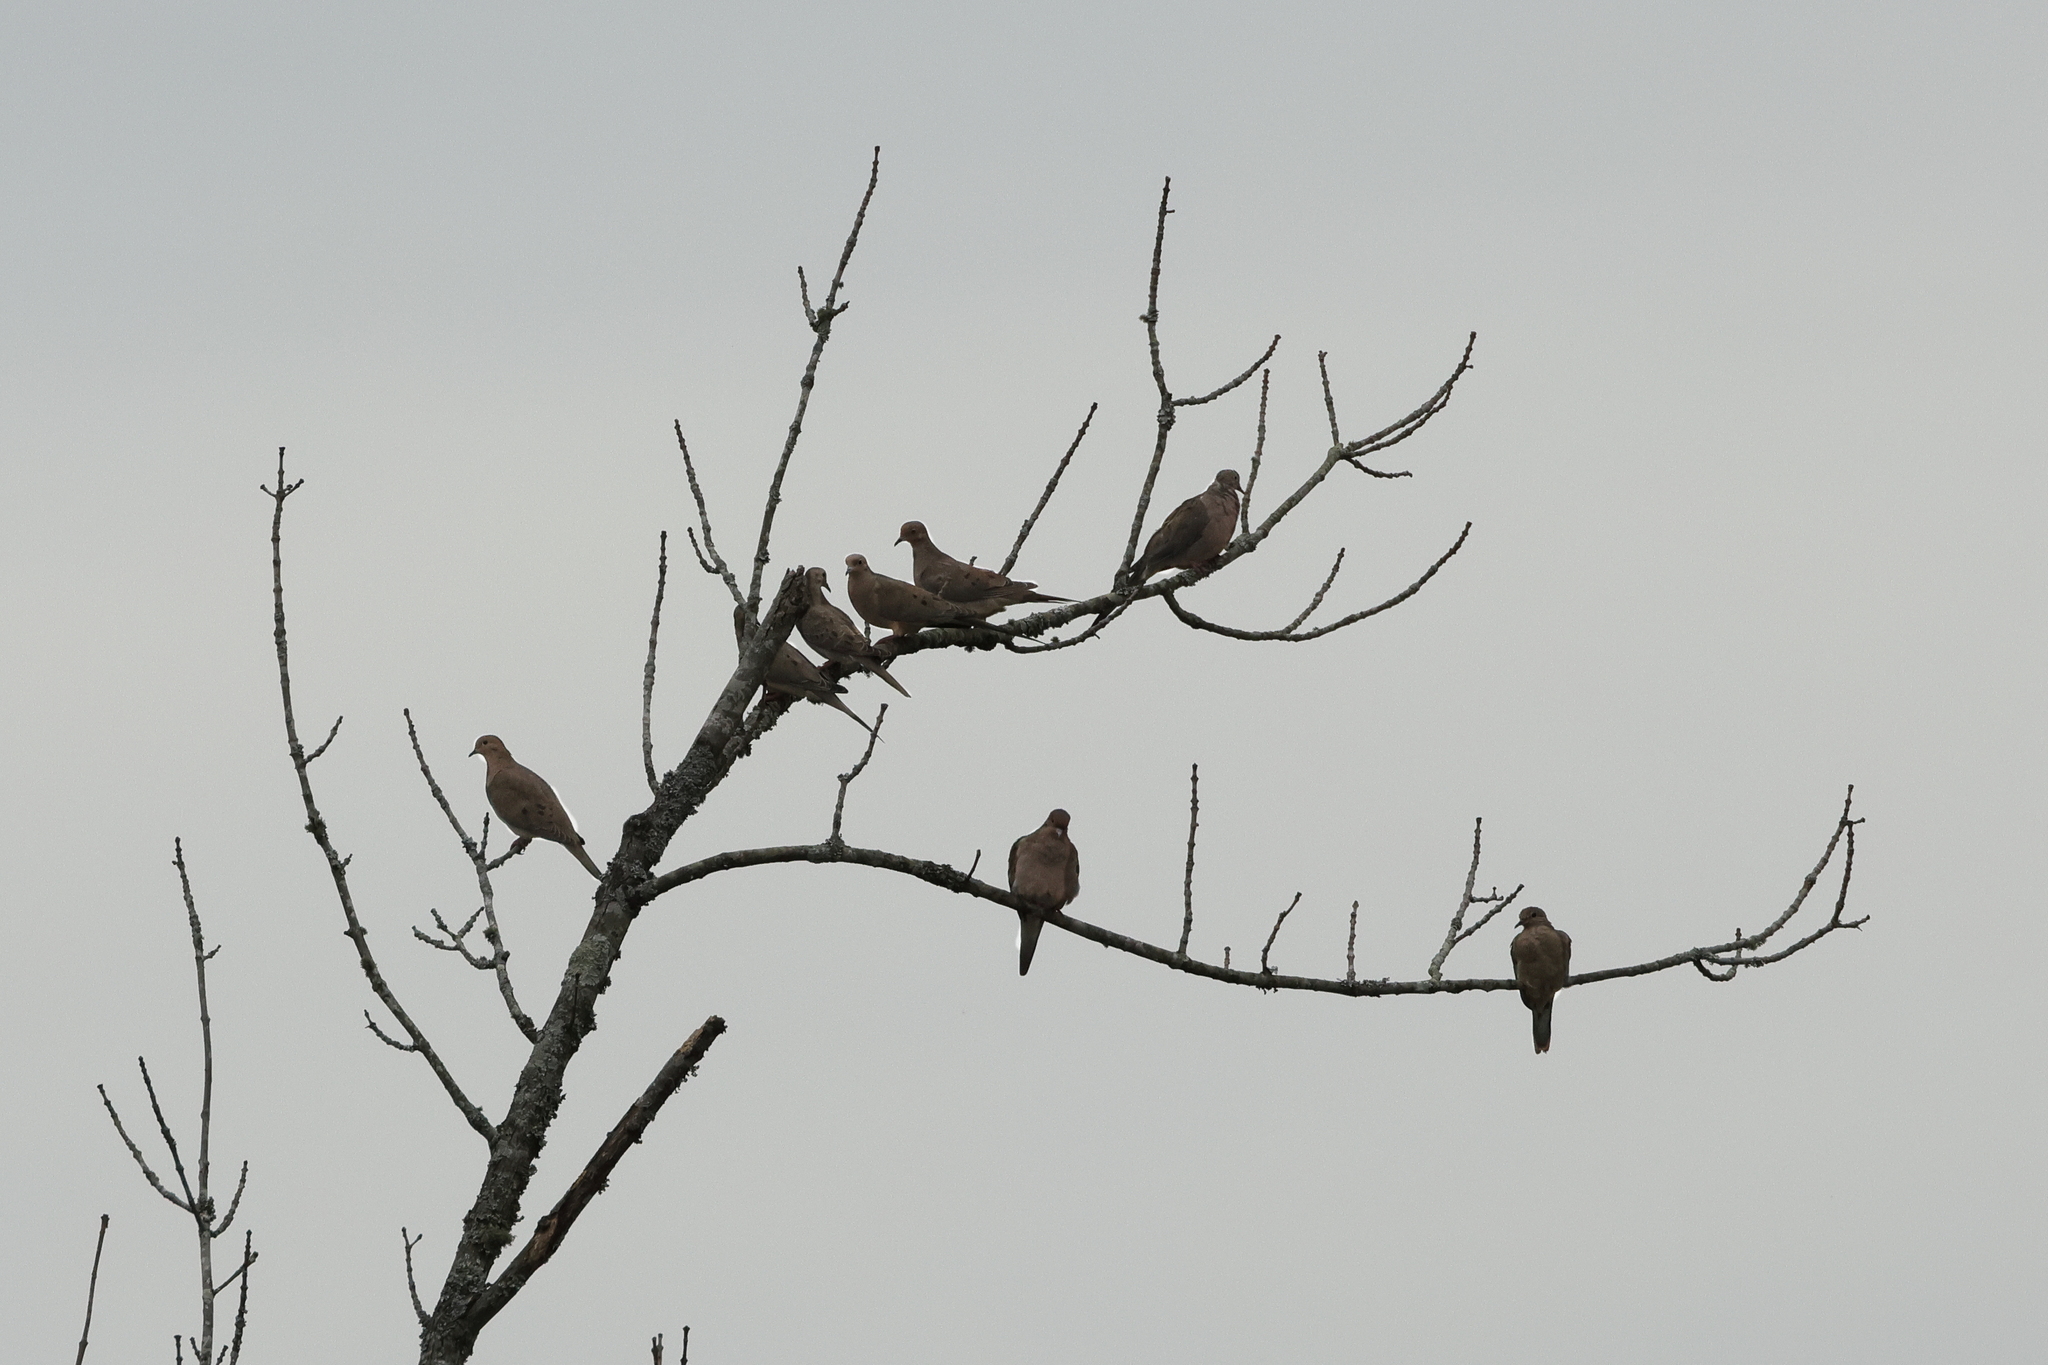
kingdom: Animalia
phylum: Chordata
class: Aves
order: Columbiformes
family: Columbidae
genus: Zenaida
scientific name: Zenaida macroura
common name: Mourning dove
